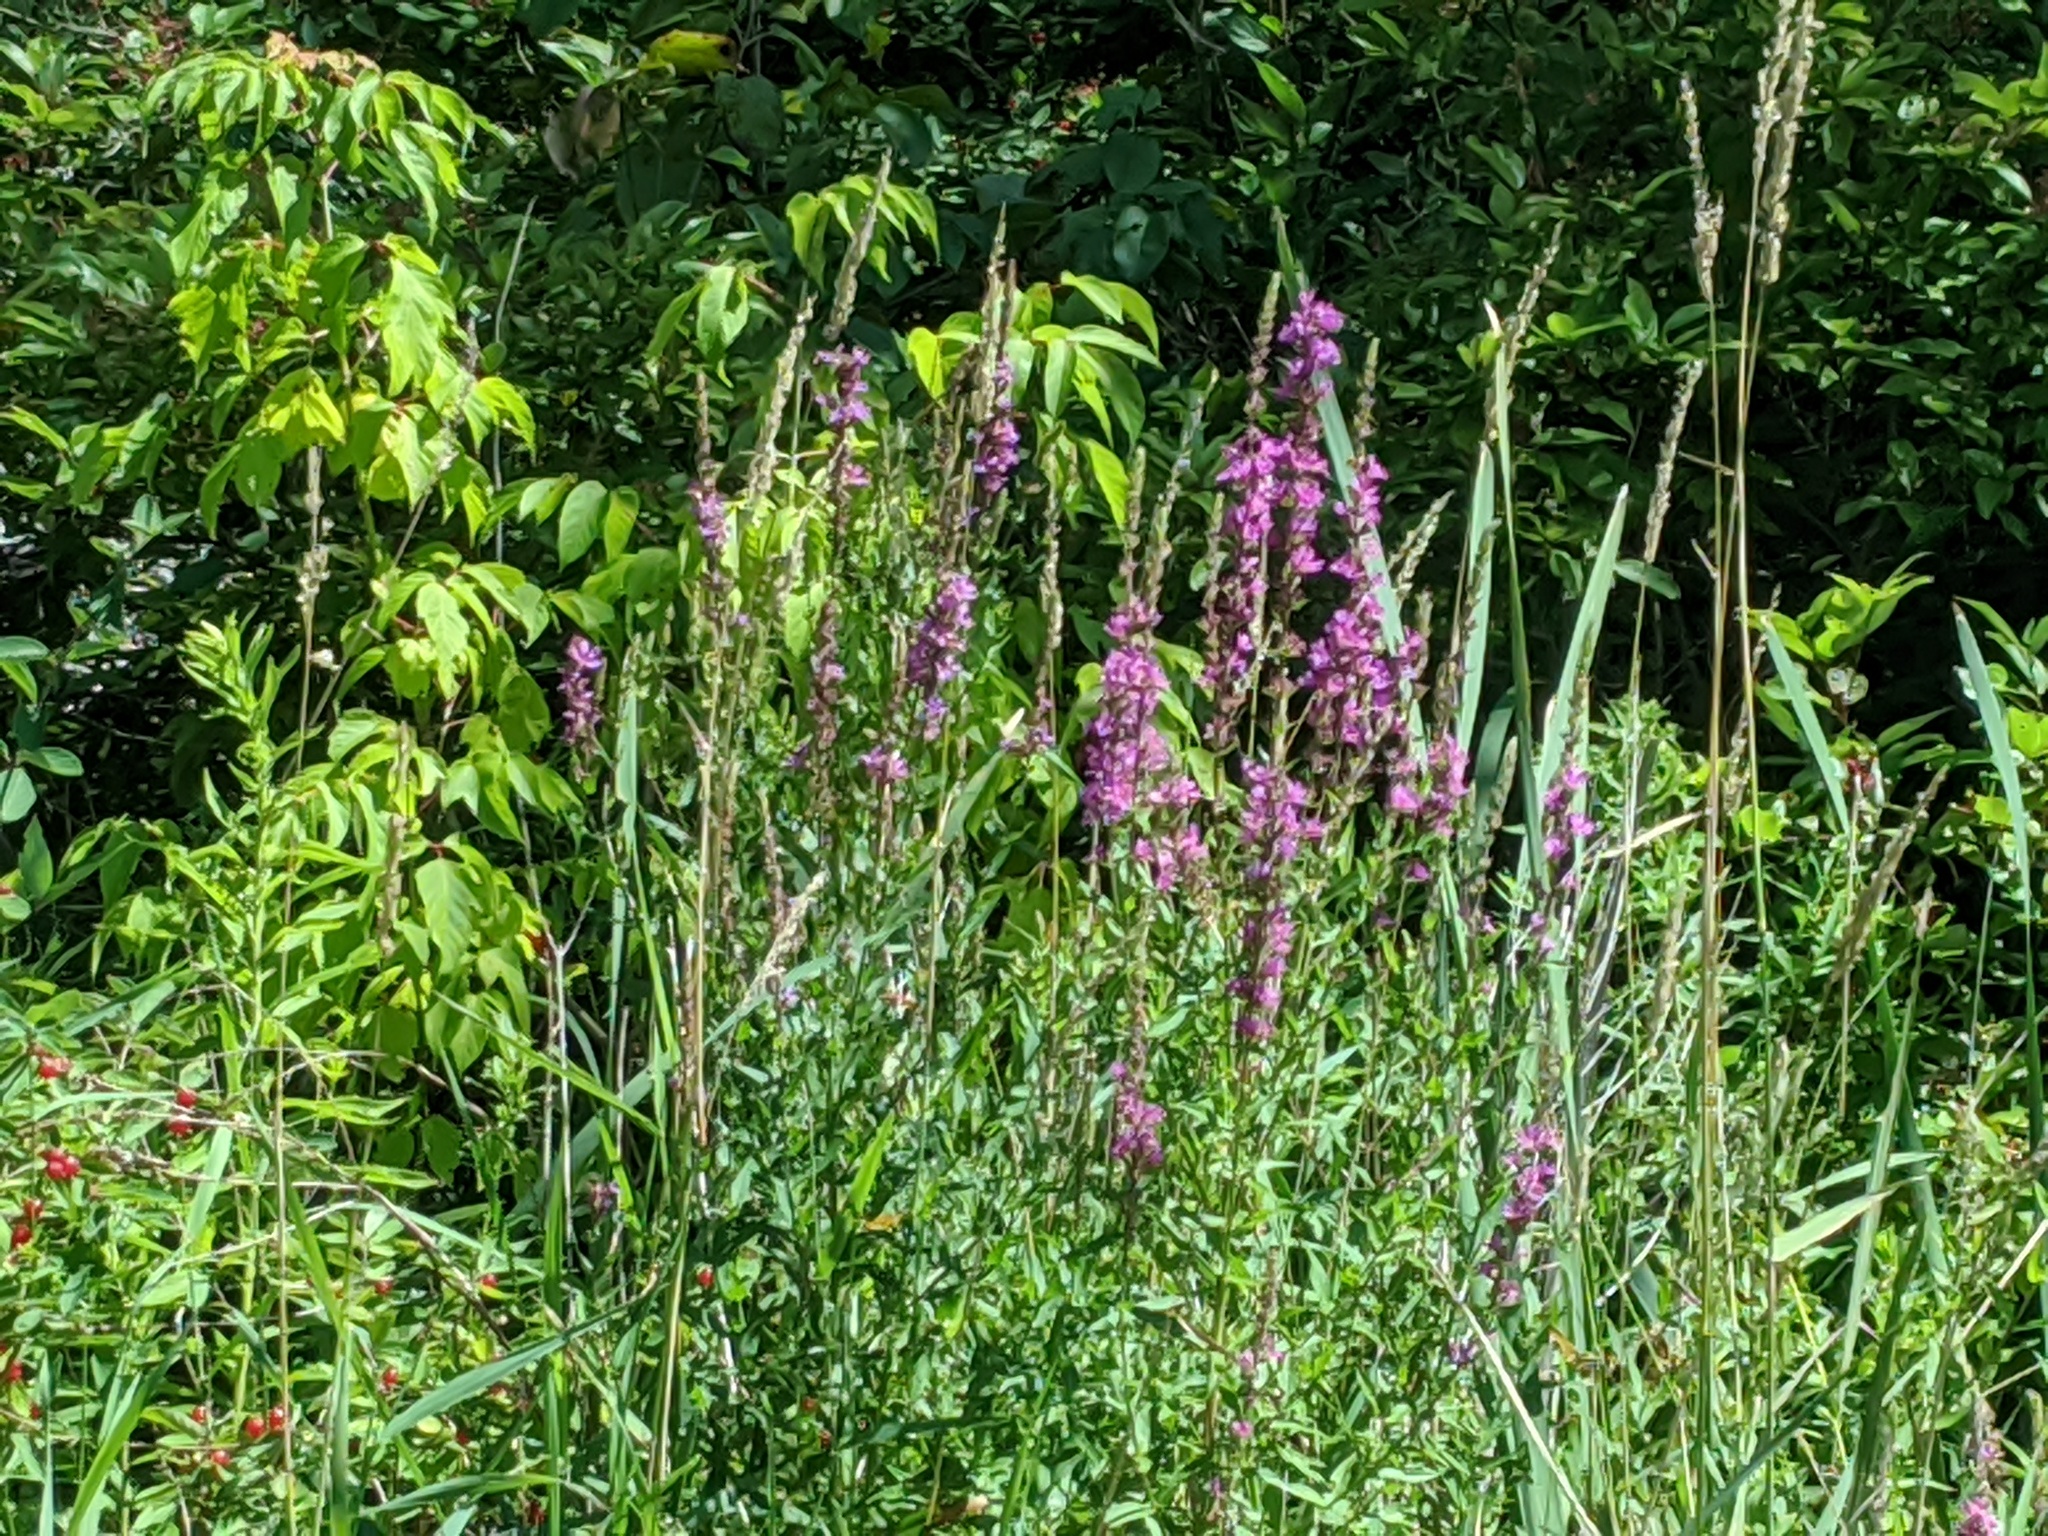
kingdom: Plantae
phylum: Tracheophyta
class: Magnoliopsida
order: Myrtales
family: Lythraceae
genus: Lythrum
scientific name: Lythrum salicaria
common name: Purple loosestrife
